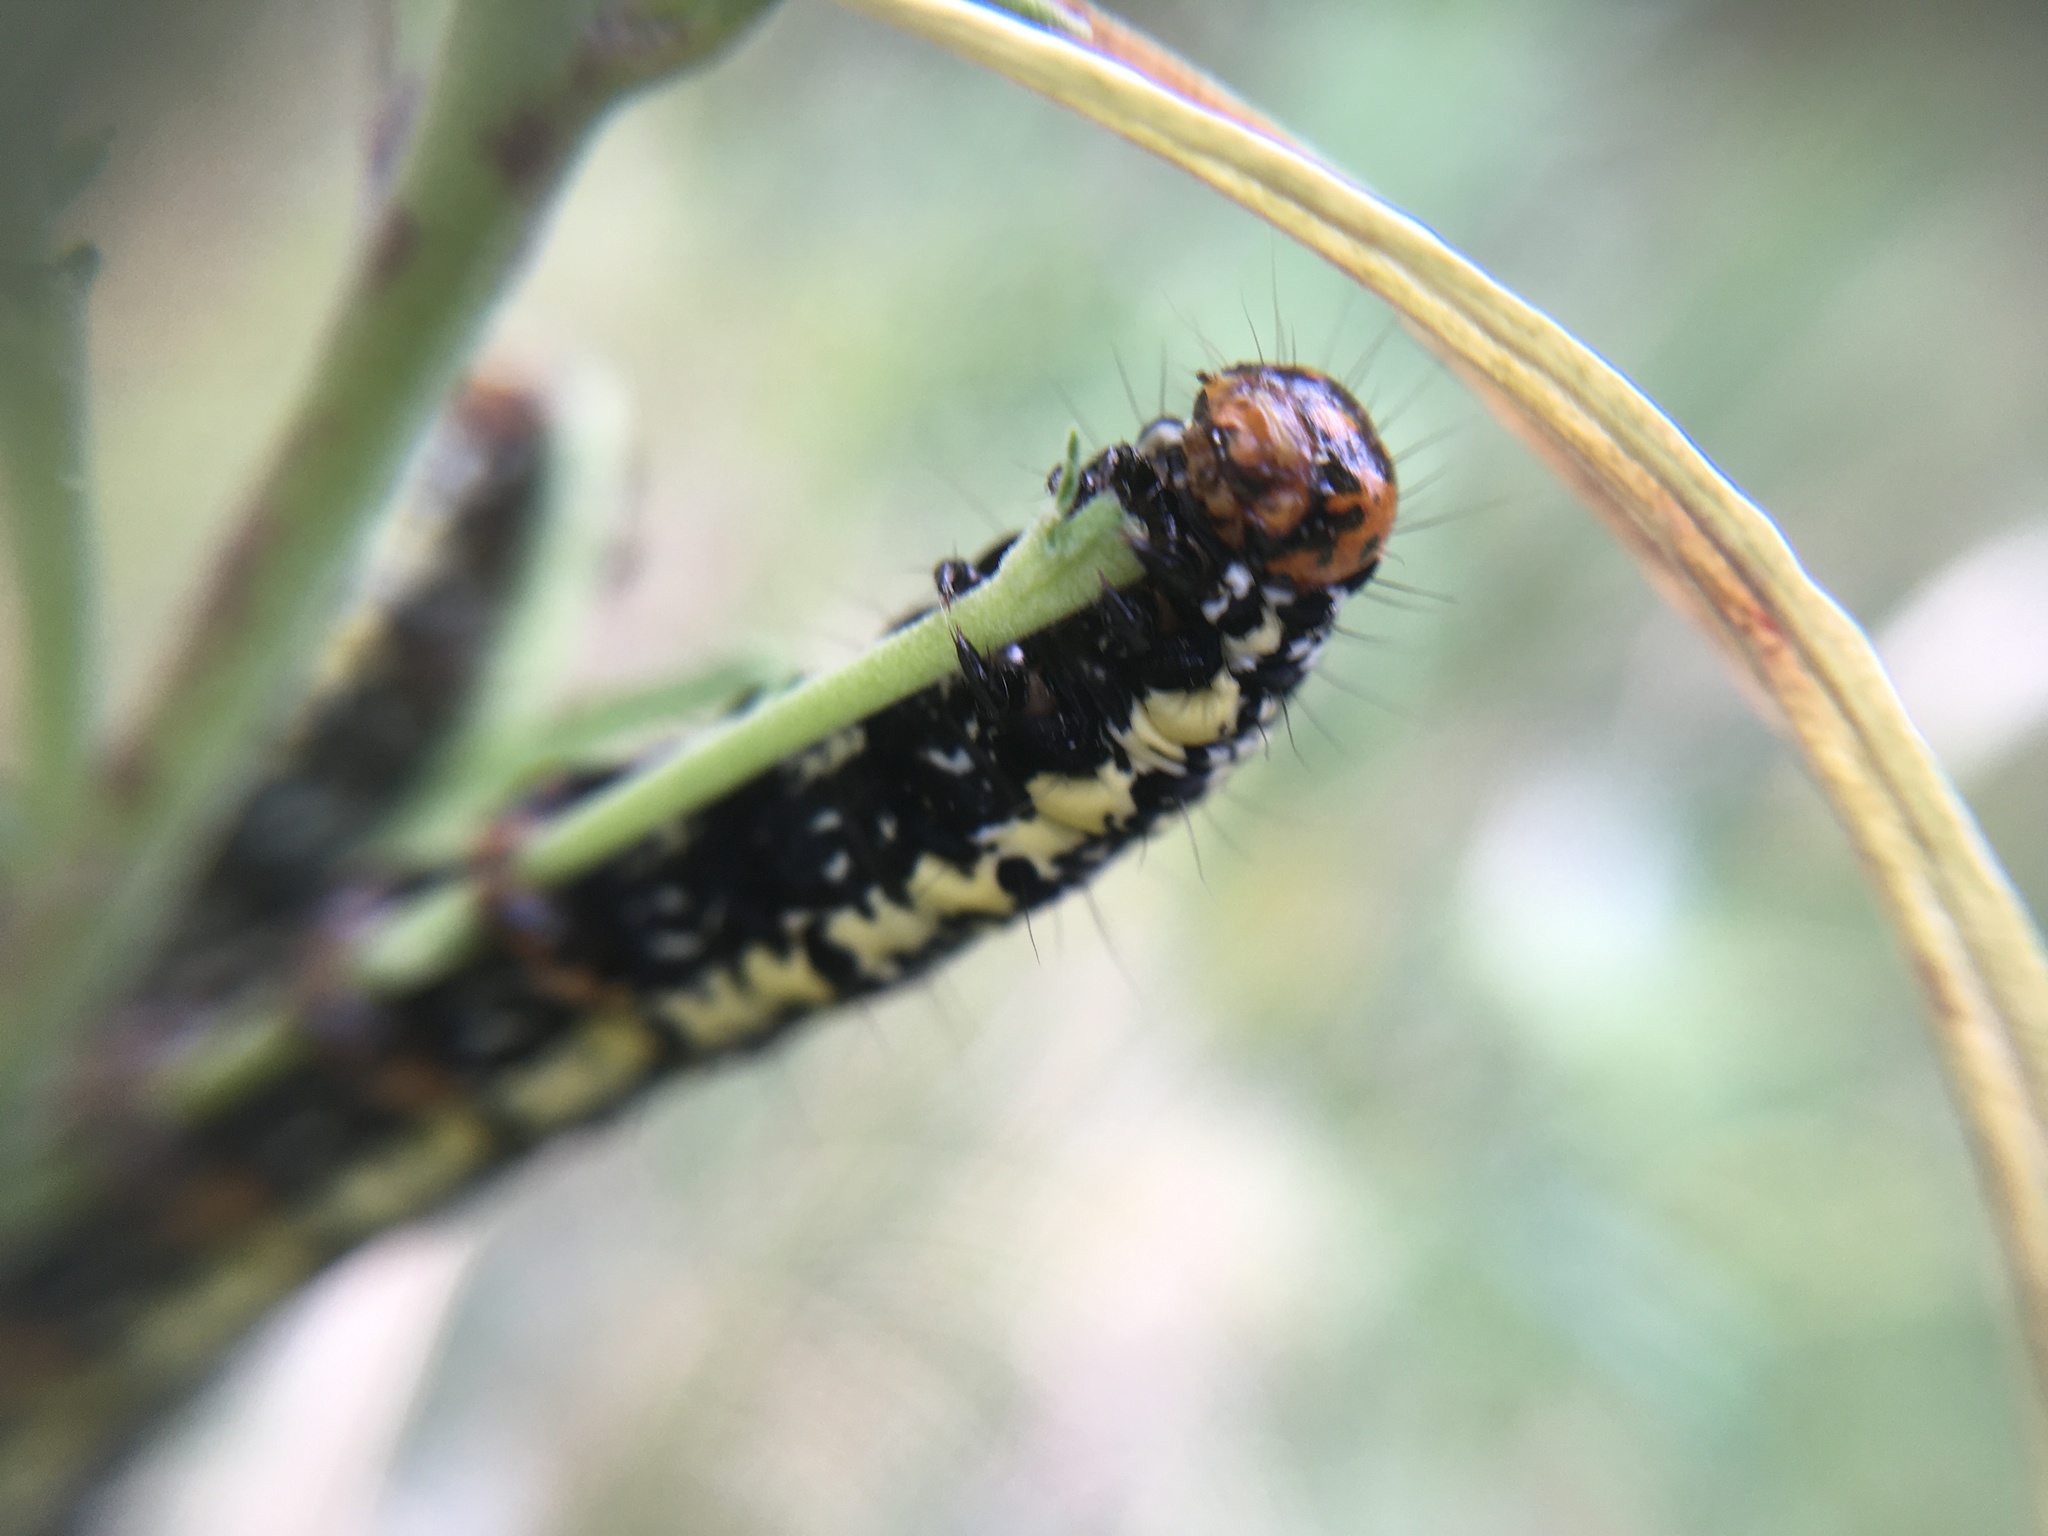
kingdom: Animalia
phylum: Arthropoda
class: Insecta
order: Lepidoptera
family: Noctuidae
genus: Phalaenoides
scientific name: Phalaenoides tristifica
